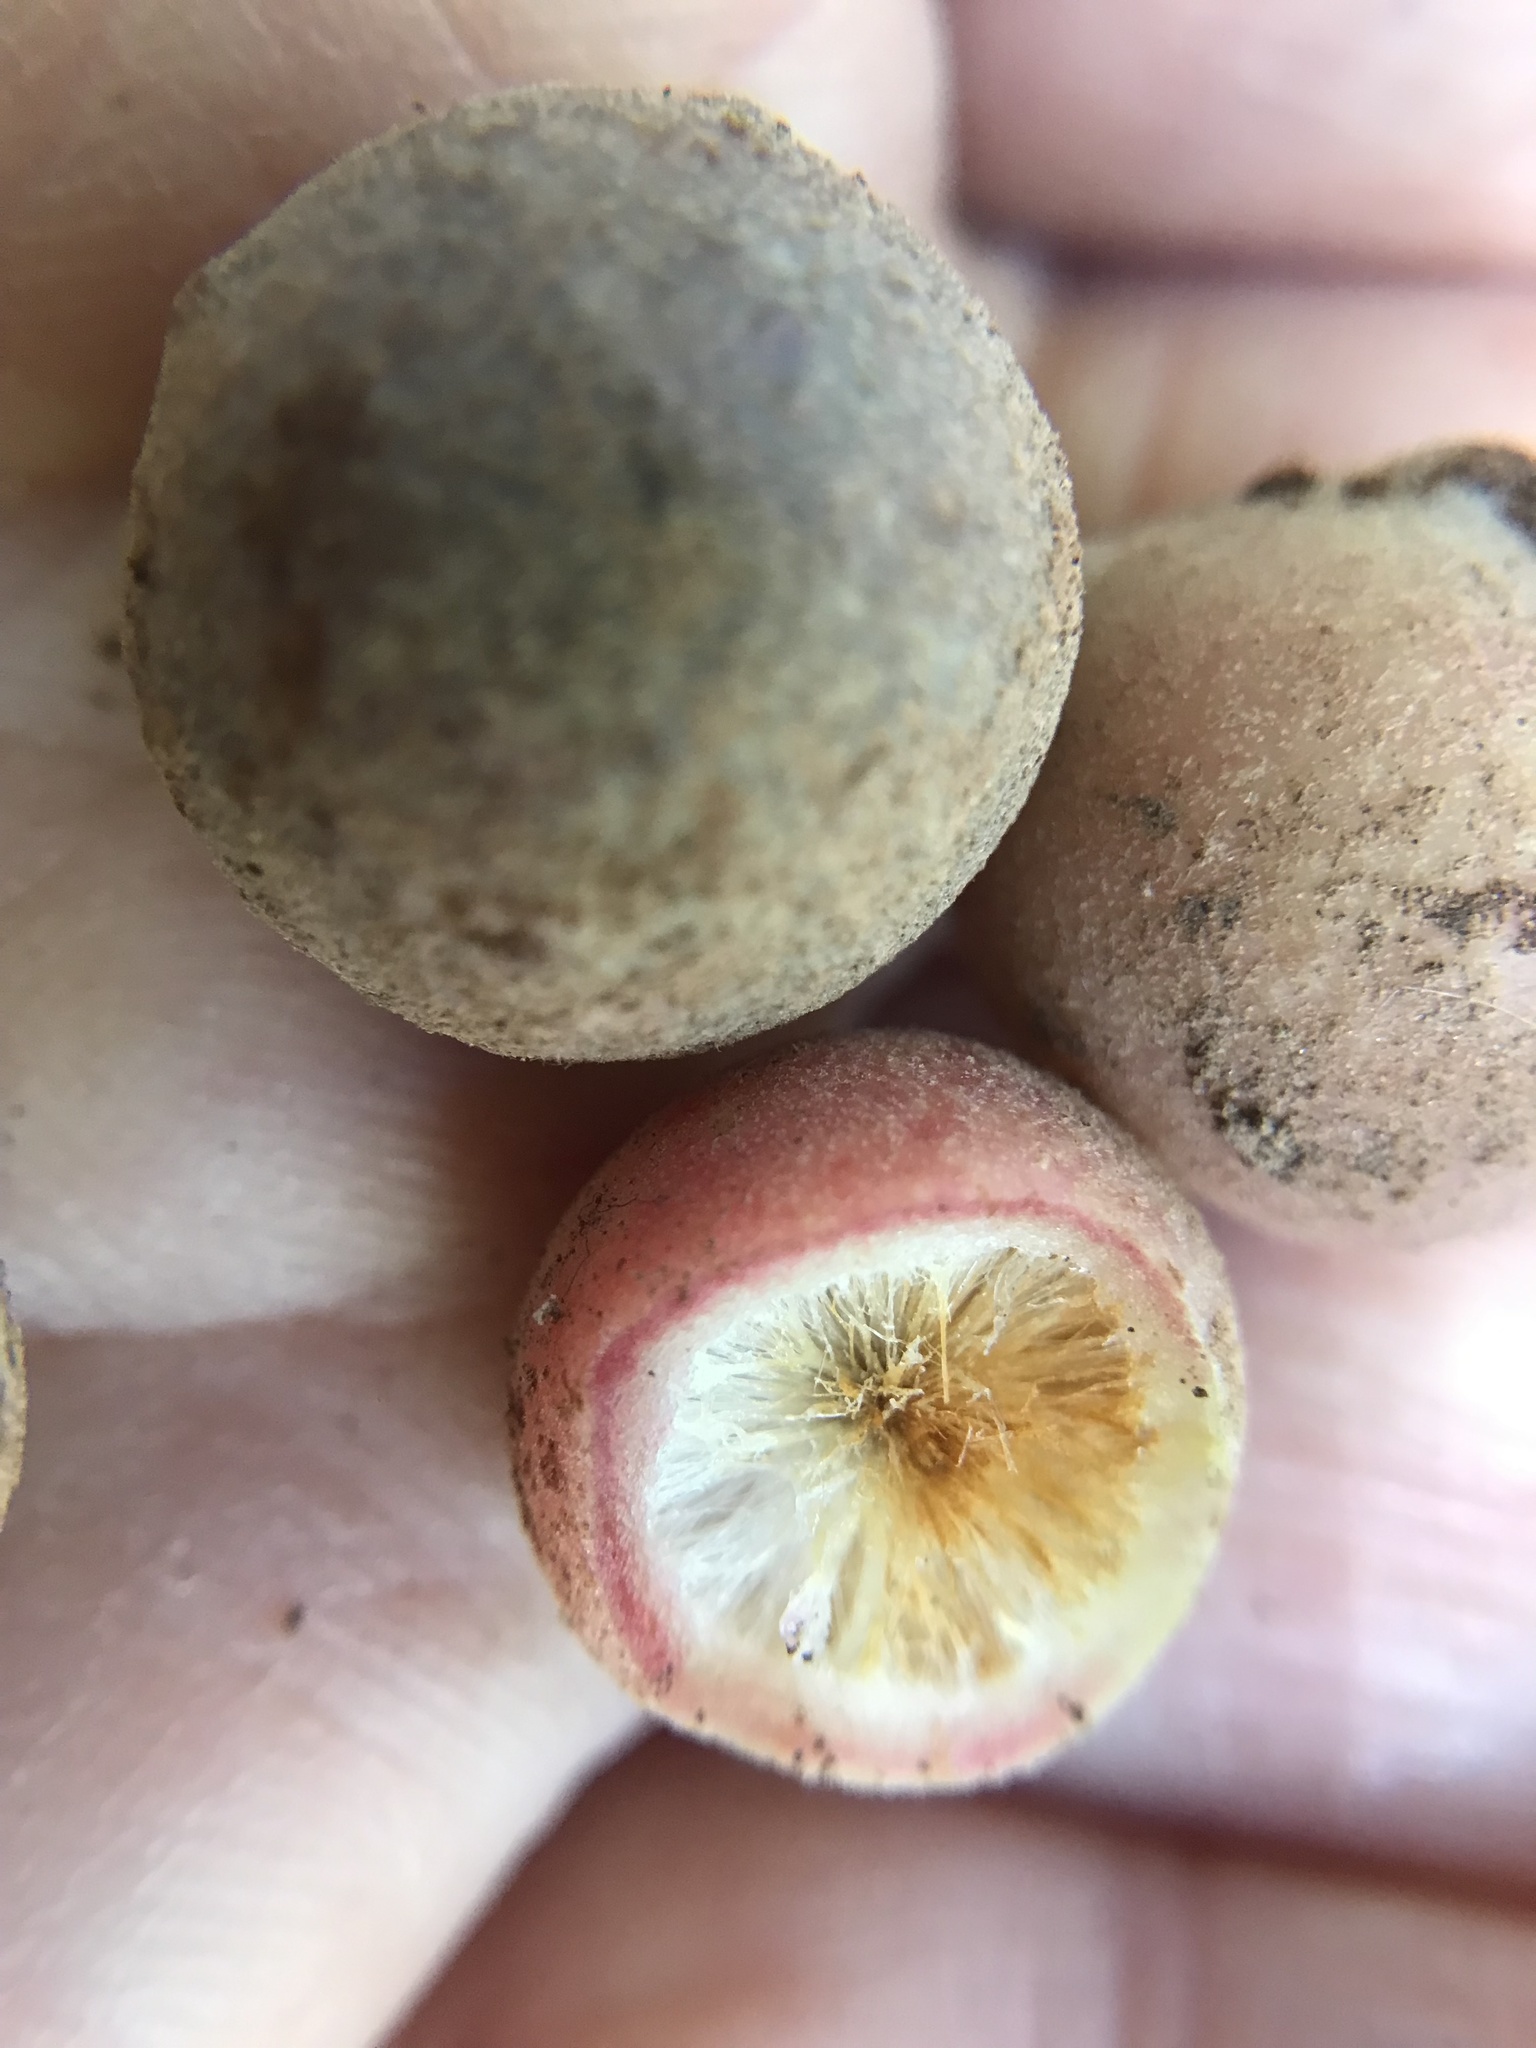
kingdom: Animalia
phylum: Arthropoda
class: Insecta
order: Hymenoptera
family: Cynipidae
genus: Philonix
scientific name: Philonix fulvicollis
